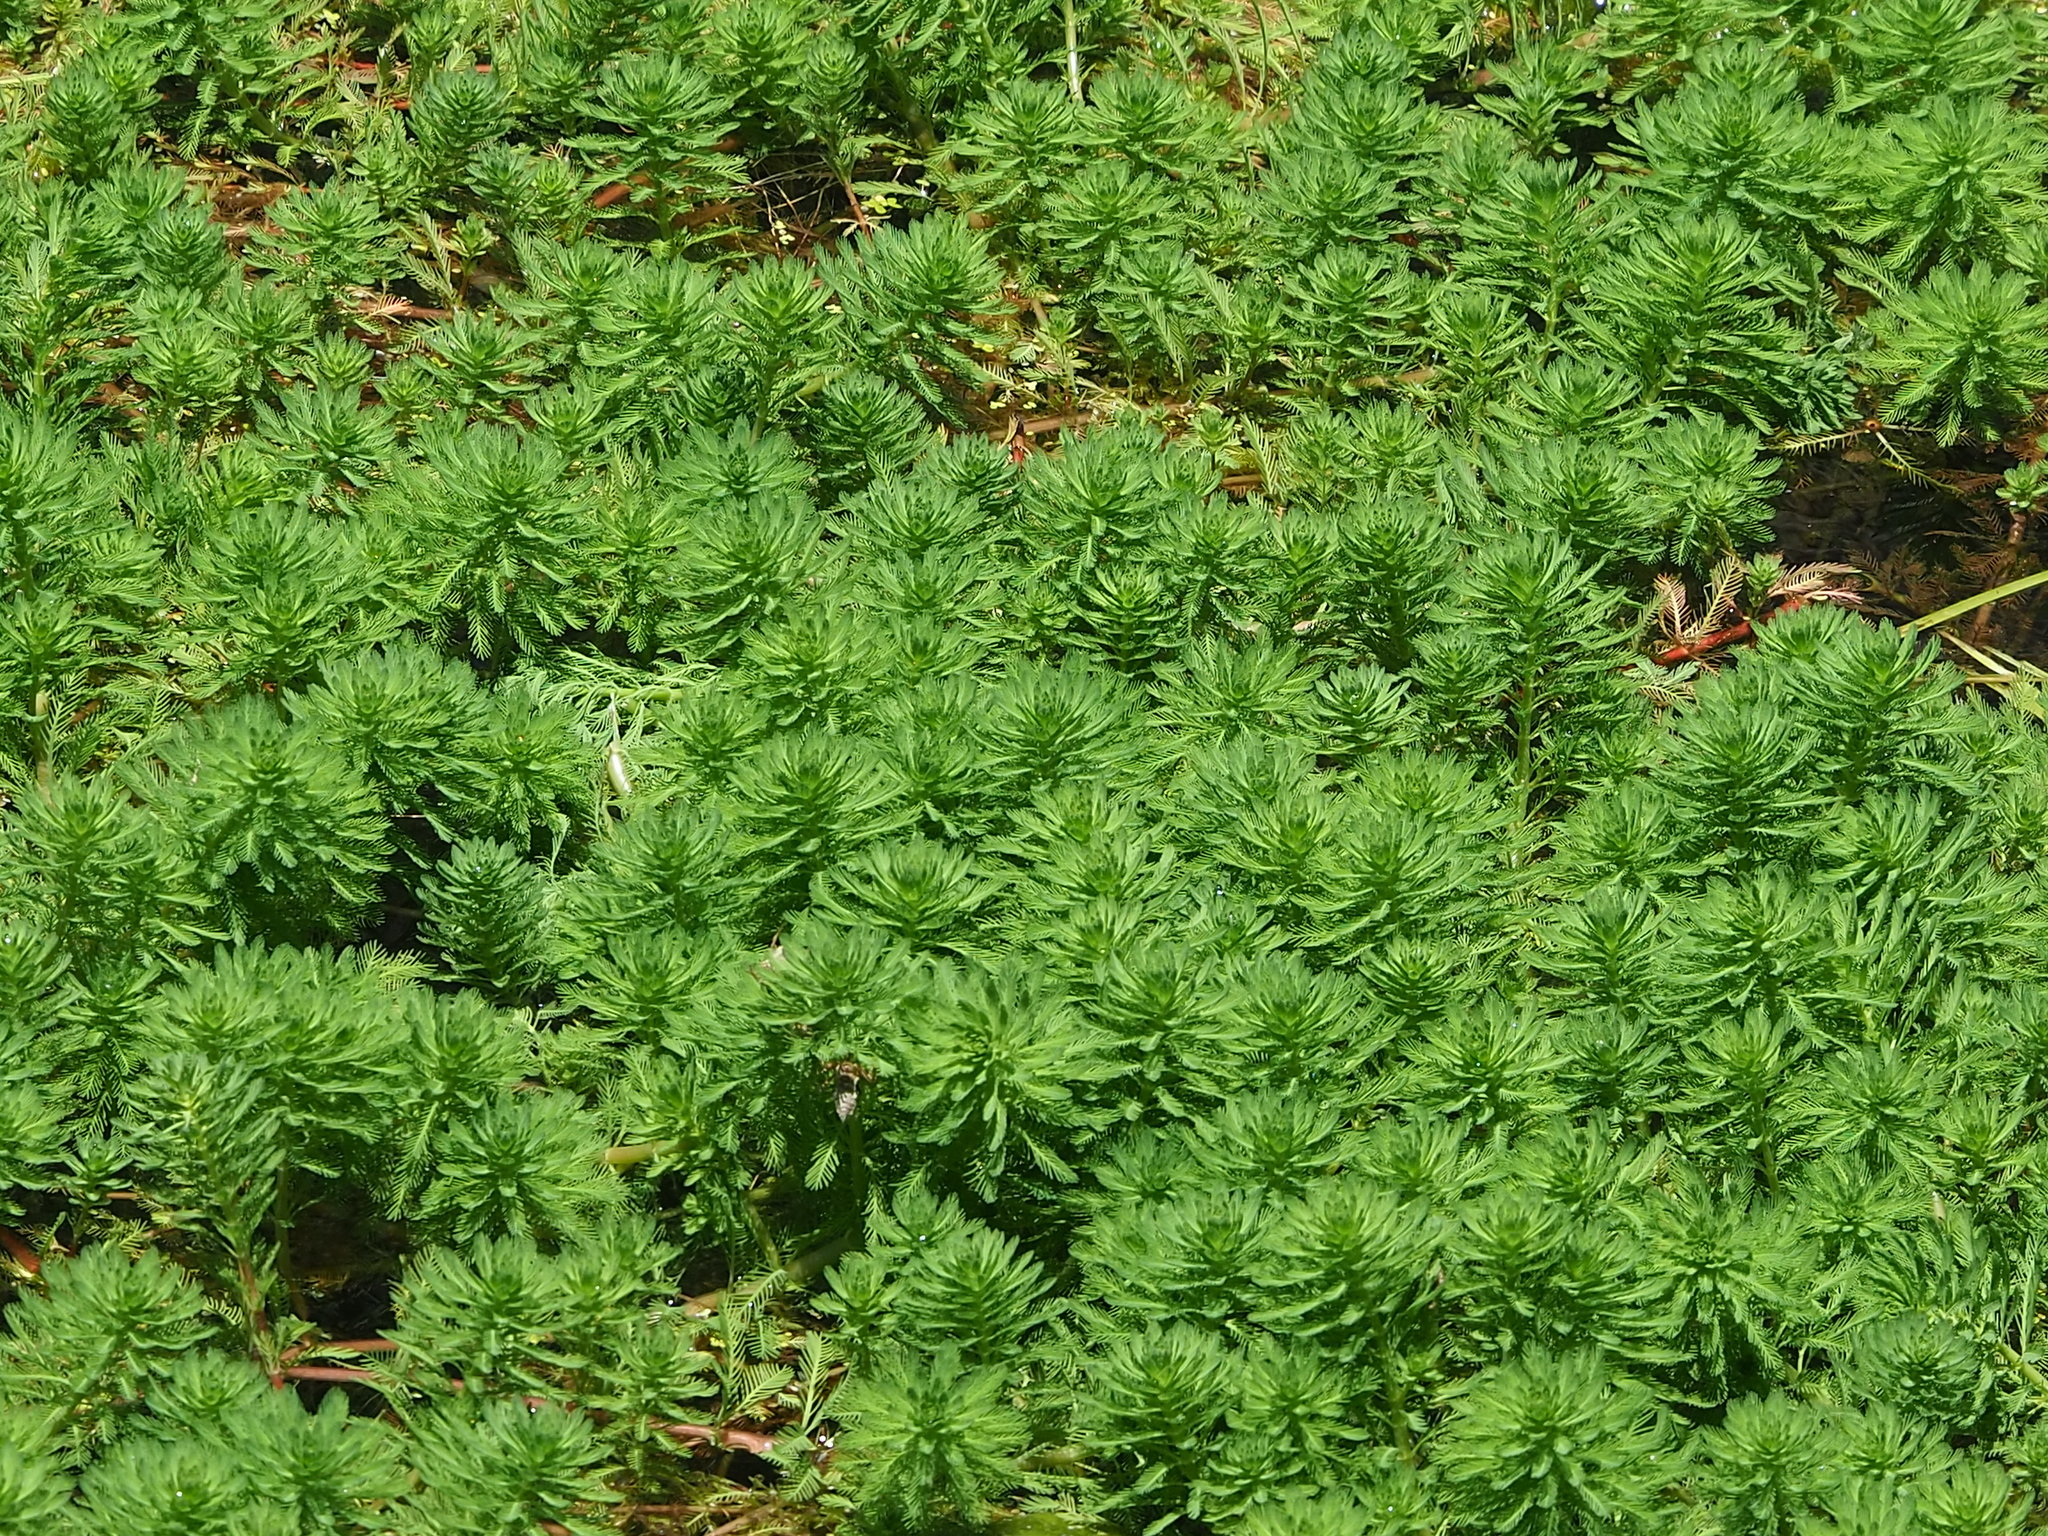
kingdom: Plantae
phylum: Tracheophyta
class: Magnoliopsida
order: Saxifragales
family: Haloragaceae
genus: Myriophyllum
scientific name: Myriophyllum aquaticum
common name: Parrot's feather
